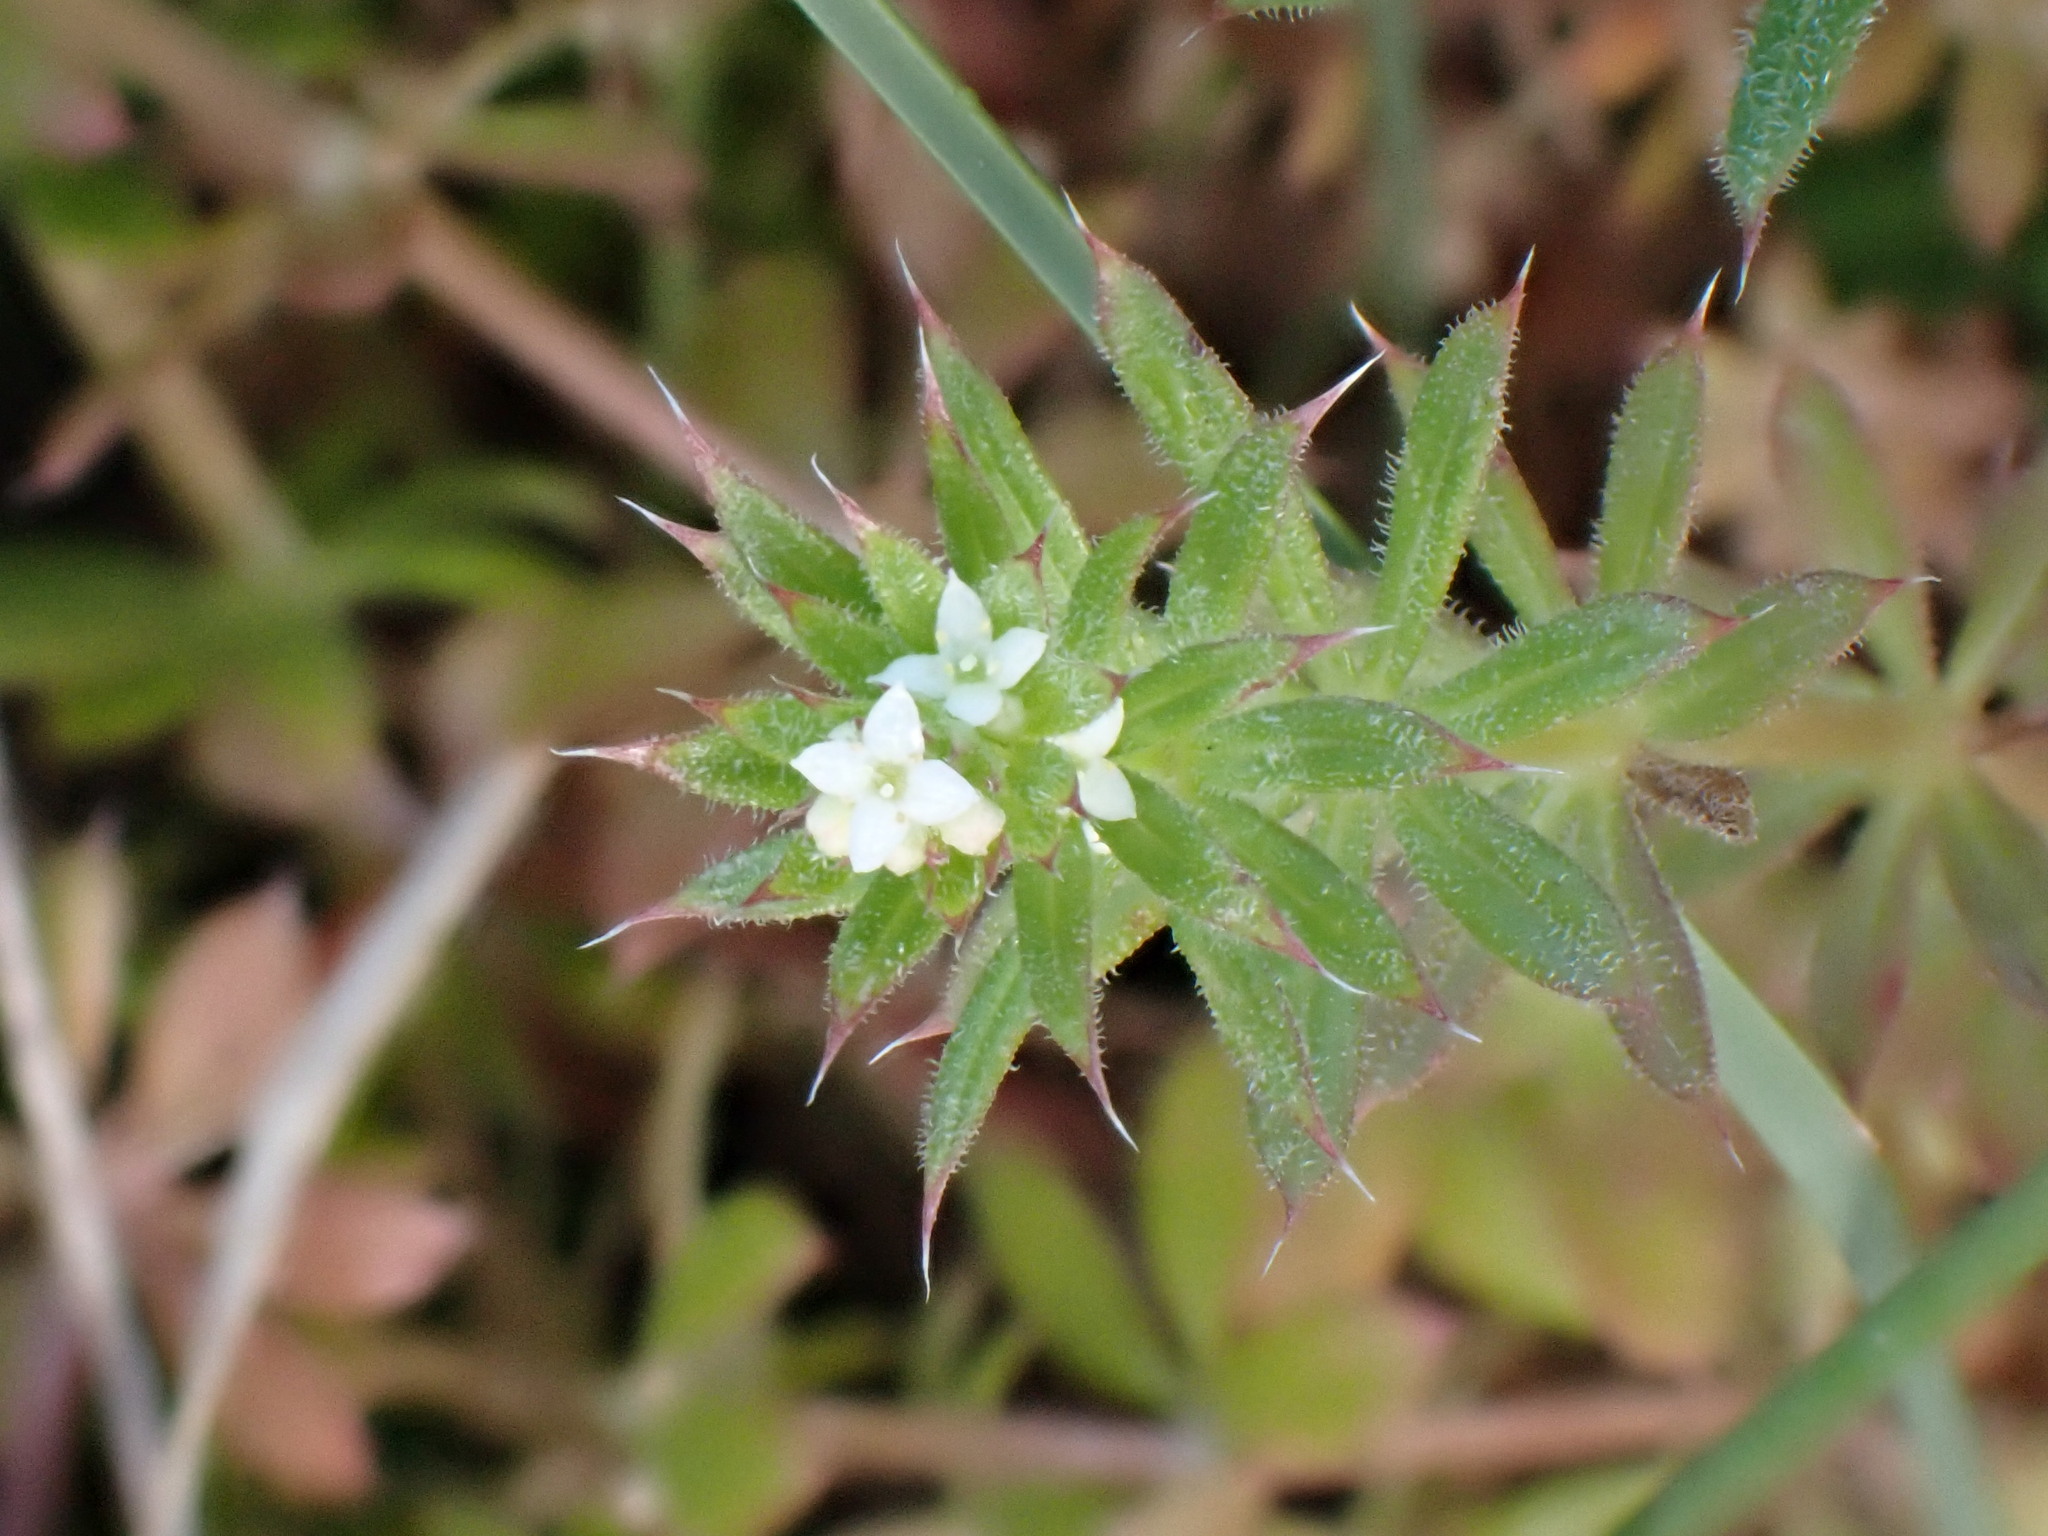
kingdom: Plantae
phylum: Tracheophyta
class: Magnoliopsida
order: Gentianales
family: Rubiaceae
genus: Galium
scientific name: Galium aparine
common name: Cleavers
